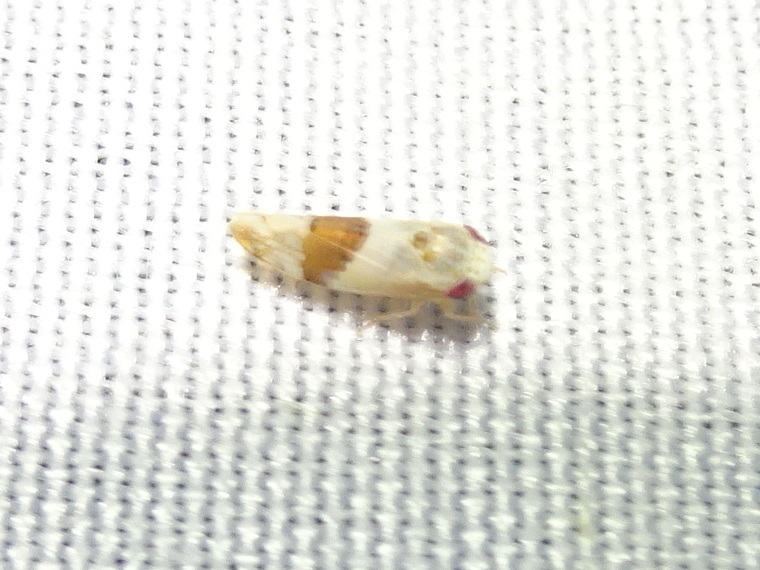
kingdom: Animalia
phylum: Arthropoda
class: Insecta
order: Hemiptera
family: Cicadellidae
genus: Norvellina
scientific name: Norvellina seminuda
